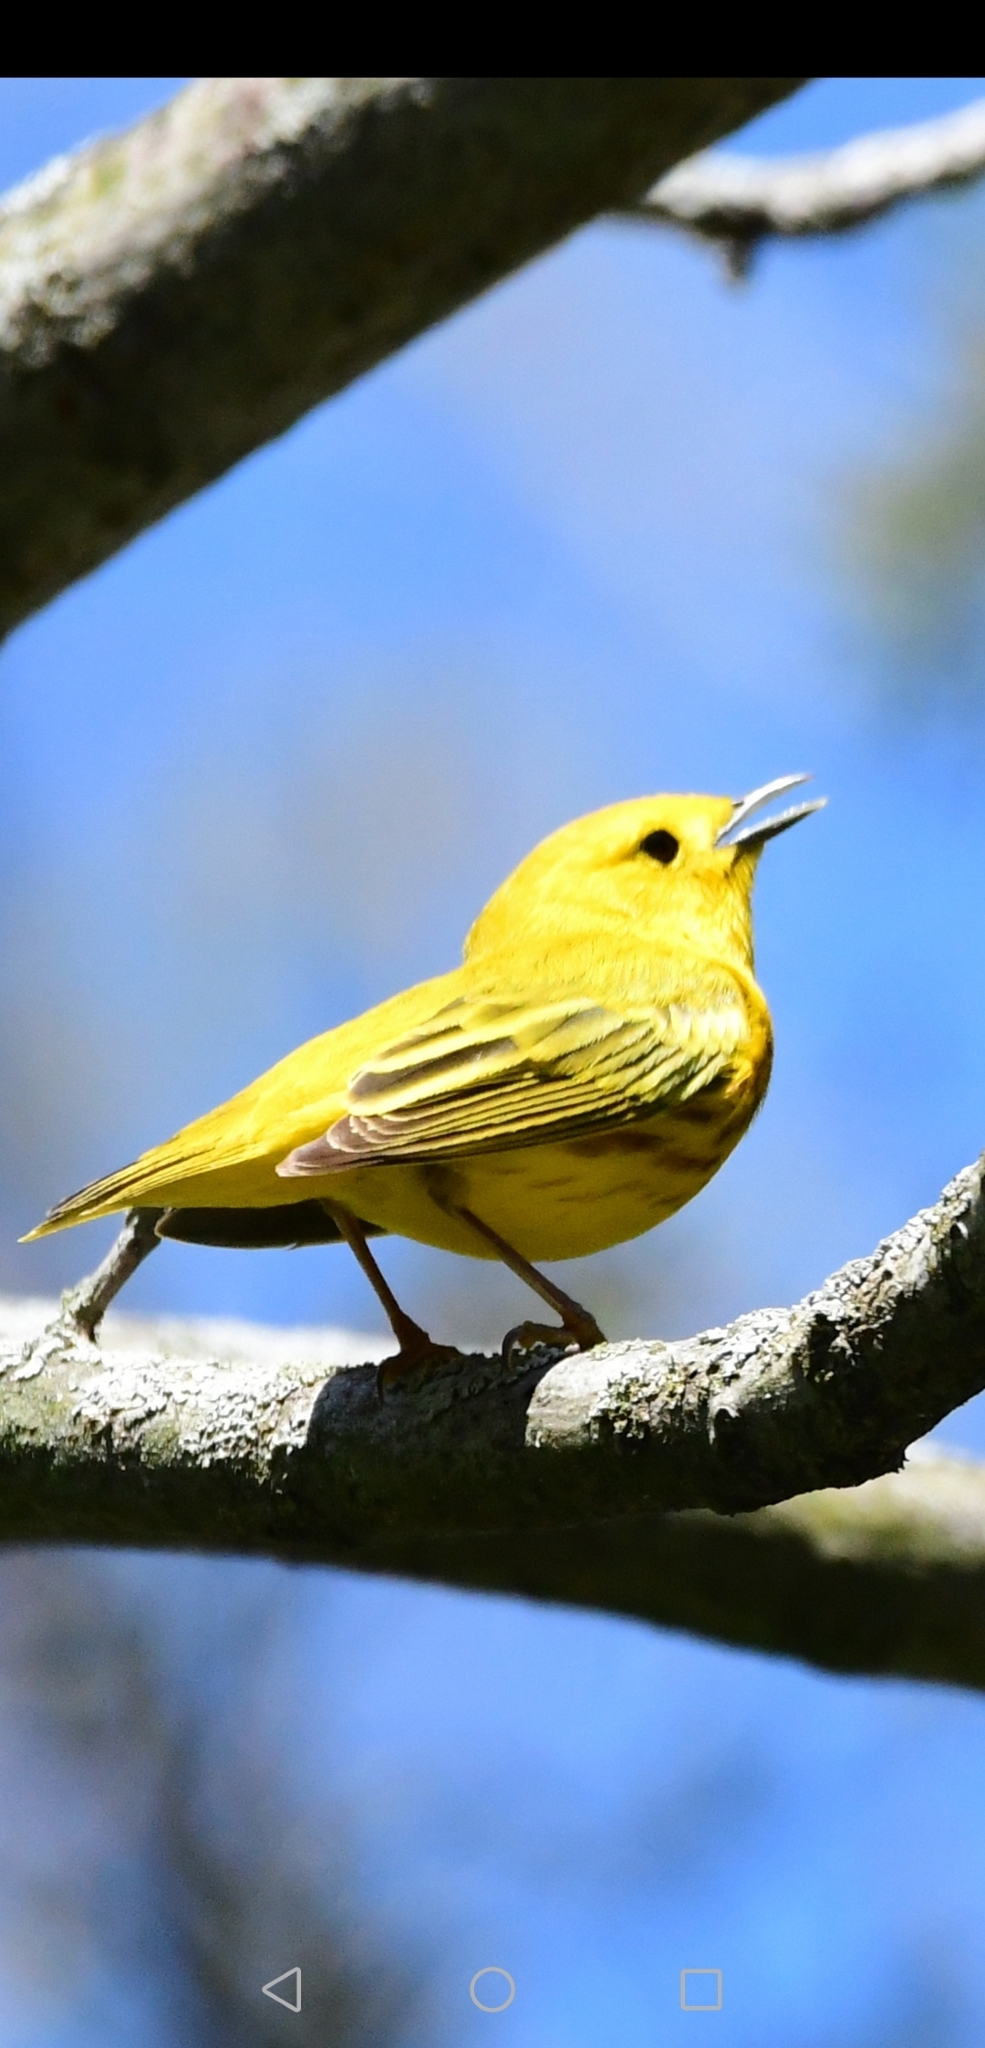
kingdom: Animalia
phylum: Chordata
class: Aves
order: Passeriformes
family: Parulidae
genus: Setophaga
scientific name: Setophaga petechia
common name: Yellow warbler
